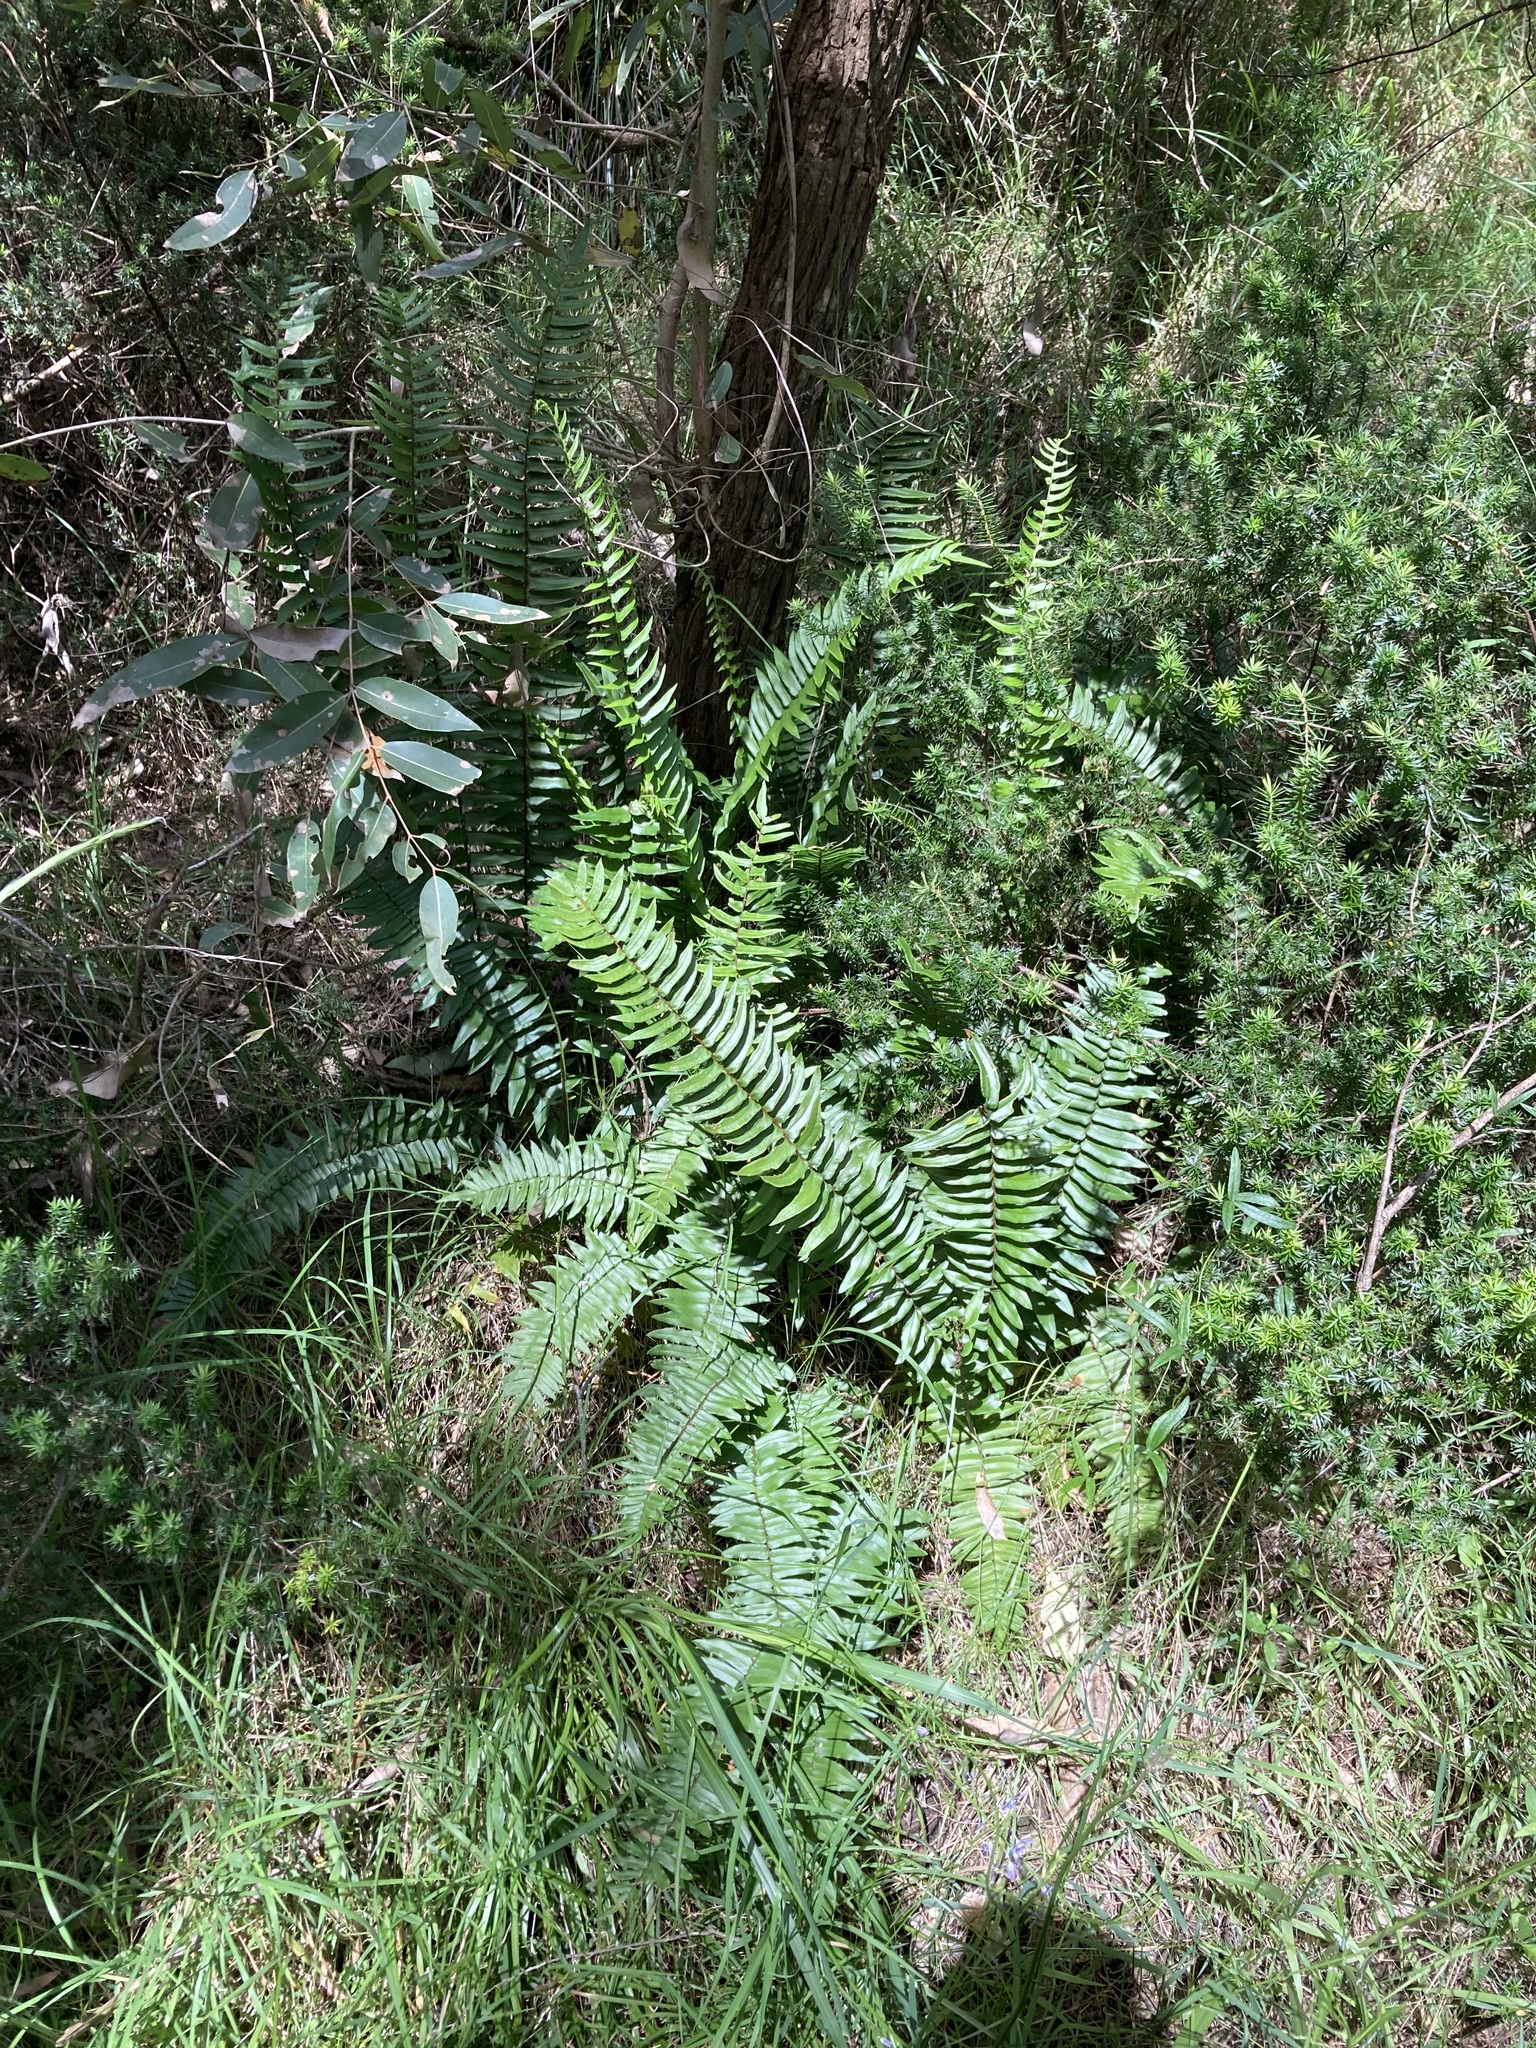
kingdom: Plantae
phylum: Tracheophyta
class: Polypodiopsida
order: Polypodiales
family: Pteridaceae
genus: Pellaea
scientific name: Pellaea falcata
